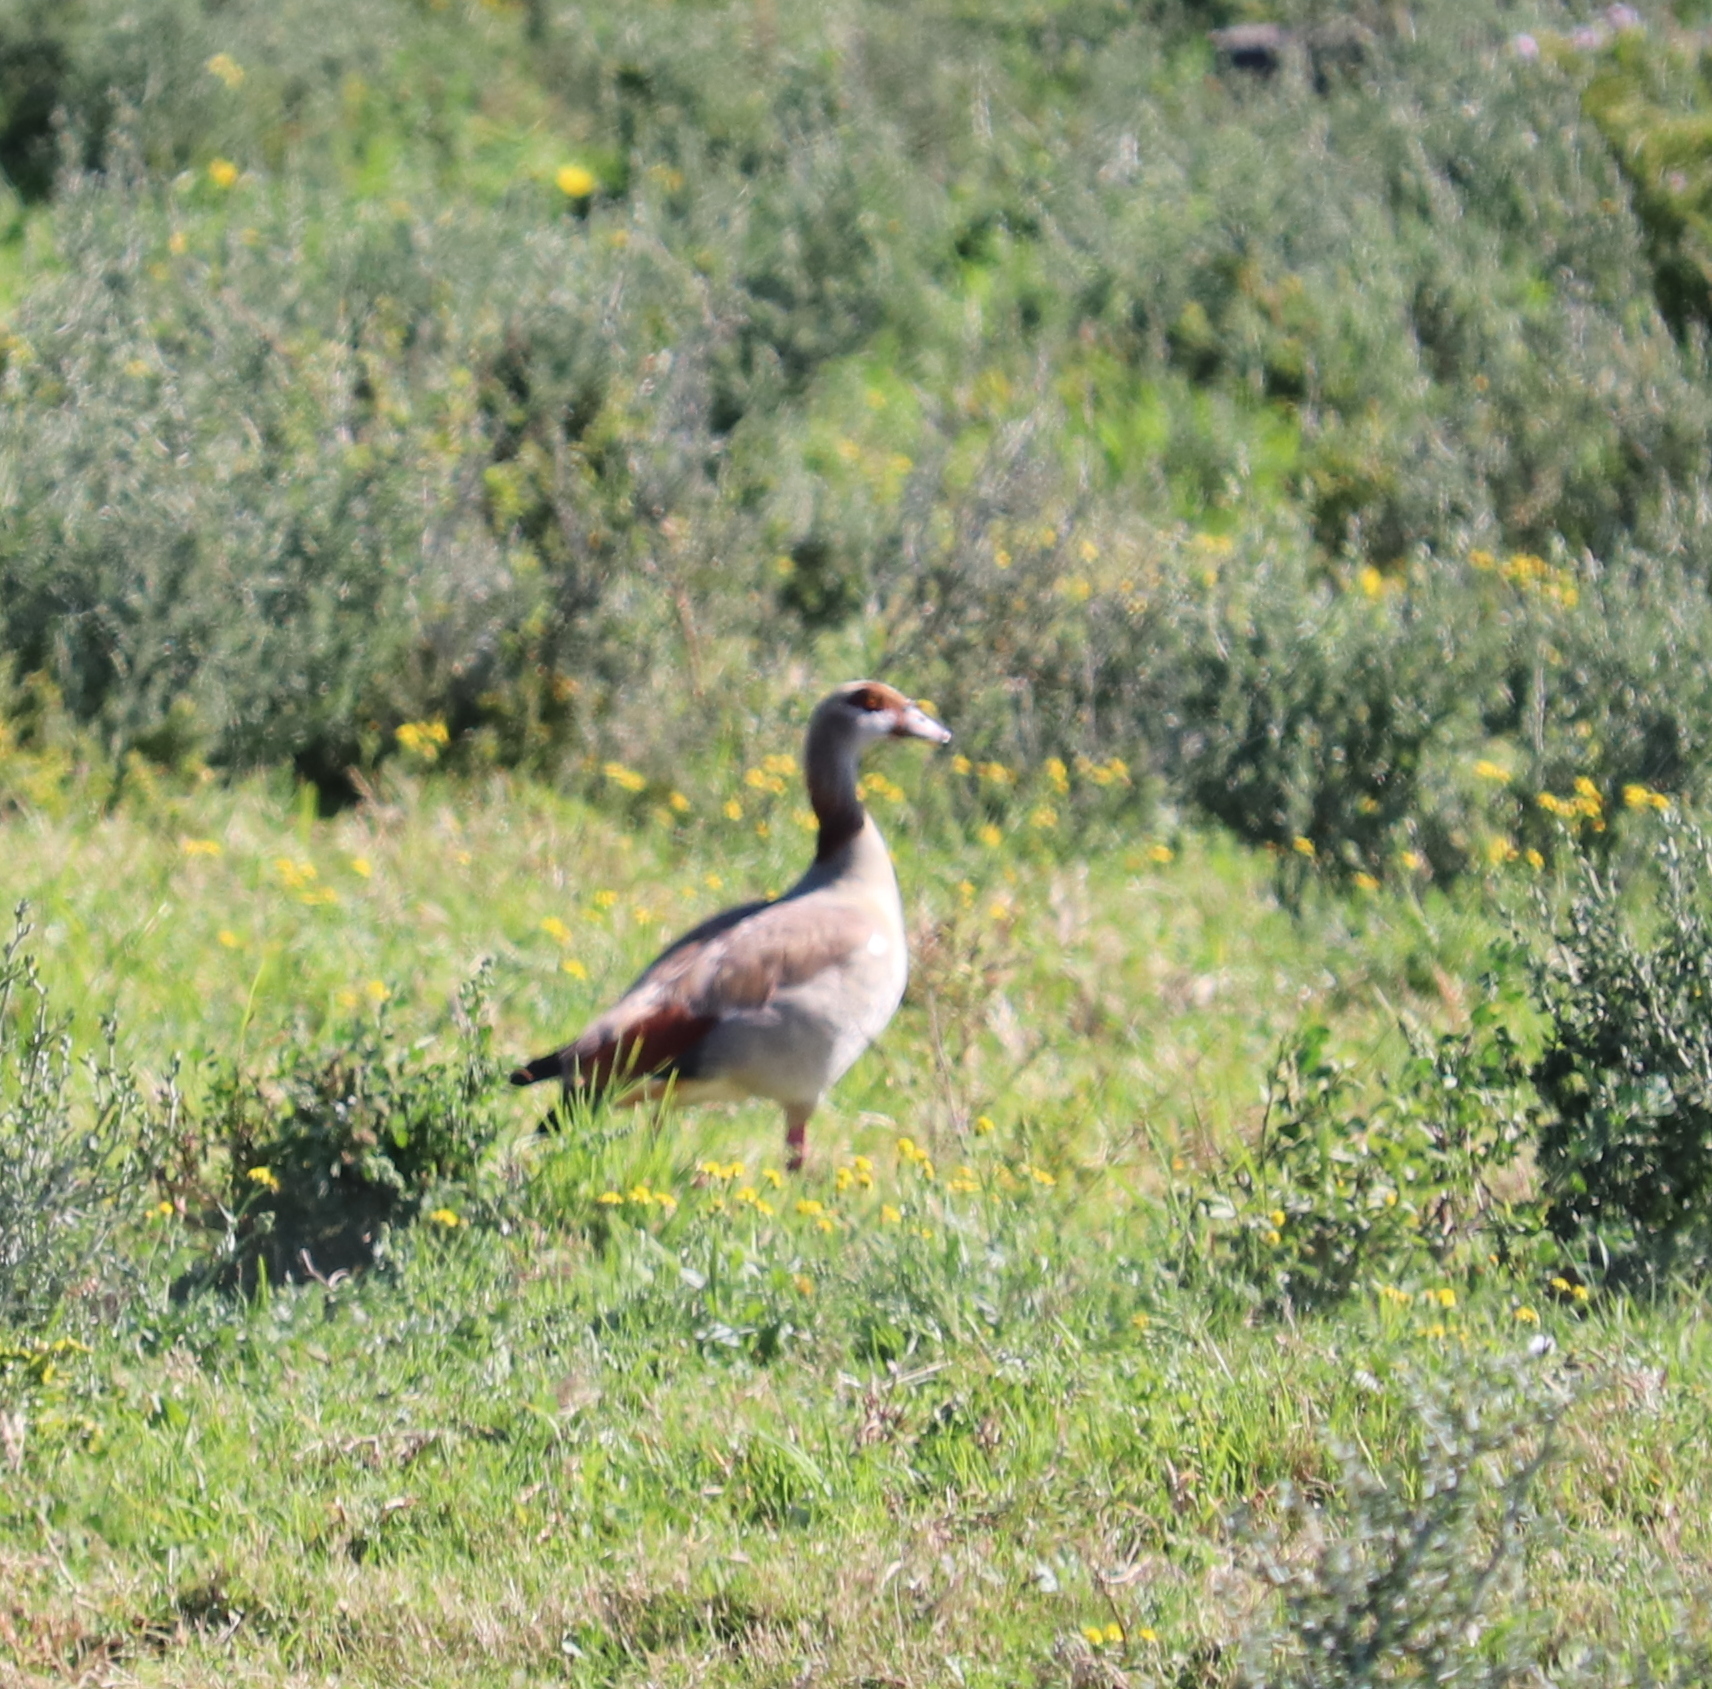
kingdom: Animalia
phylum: Chordata
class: Aves
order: Anseriformes
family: Anatidae
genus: Alopochen
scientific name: Alopochen aegyptiaca
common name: Egyptian goose
